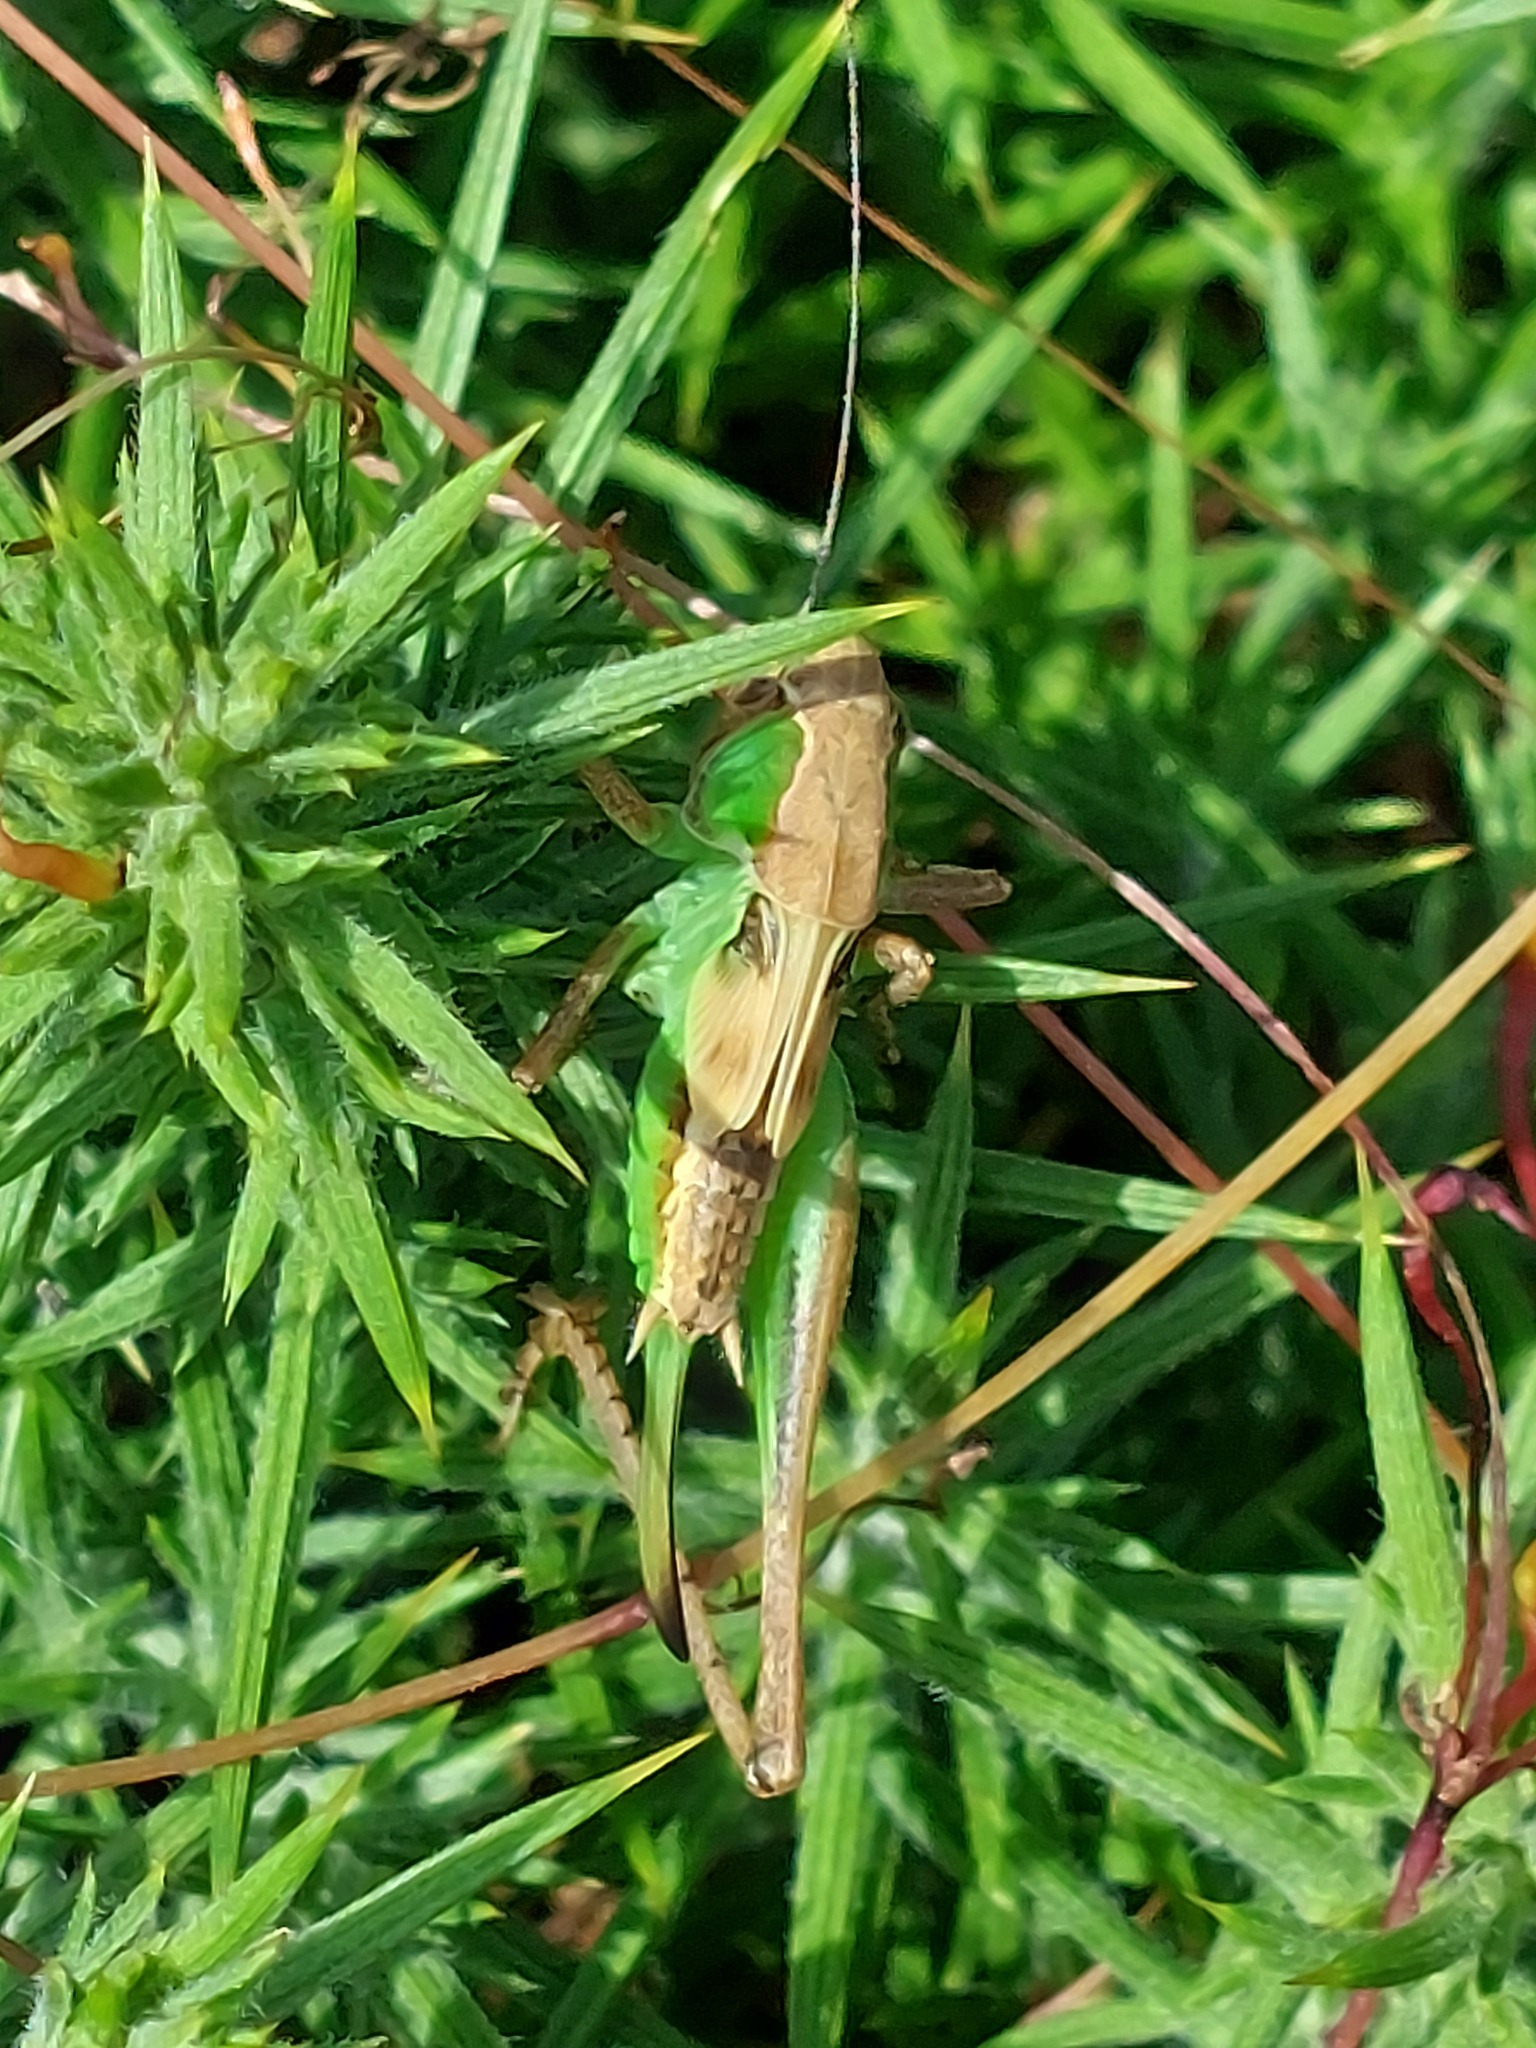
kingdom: Animalia
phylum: Arthropoda
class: Insecta
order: Orthoptera
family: Tettigoniidae
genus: Platycleis
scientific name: Platycleis albopunctata
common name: Grey bush-cricket
